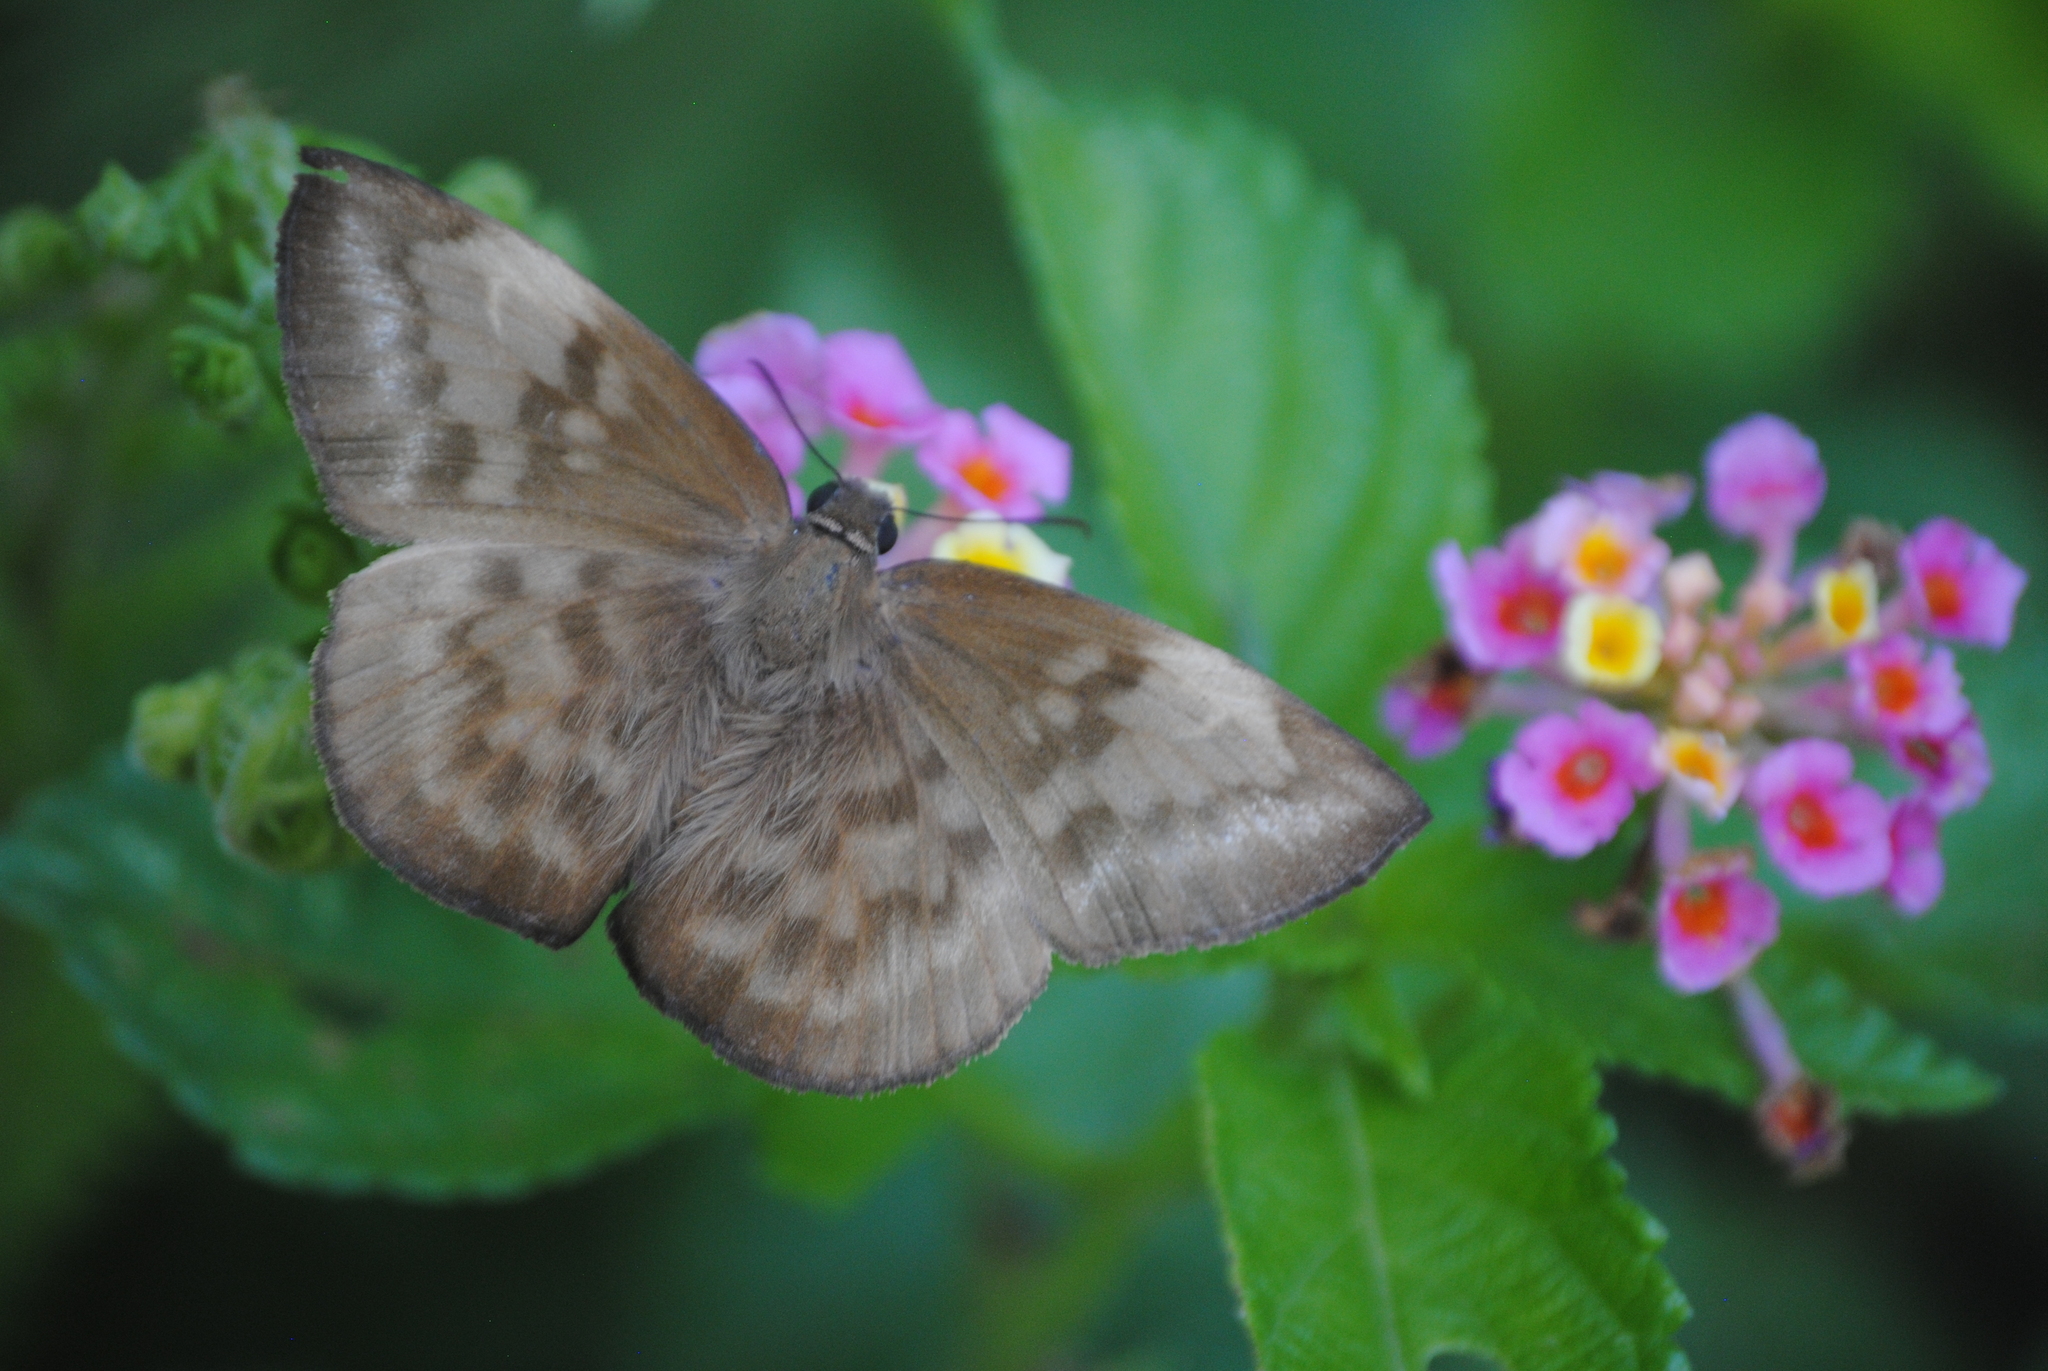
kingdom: Animalia
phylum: Arthropoda
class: Insecta
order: Lepidoptera
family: Hesperiidae
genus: Achlyodes
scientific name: Achlyodes pallida
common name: Pale sicklewing
